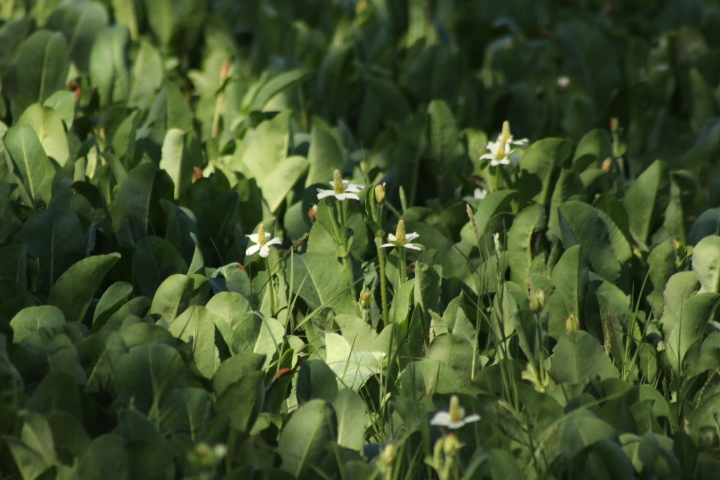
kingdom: Plantae
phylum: Tracheophyta
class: Magnoliopsida
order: Piperales
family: Saururaceae
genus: Anemopsis
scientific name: Anemopsis californica
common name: Apache-beads
